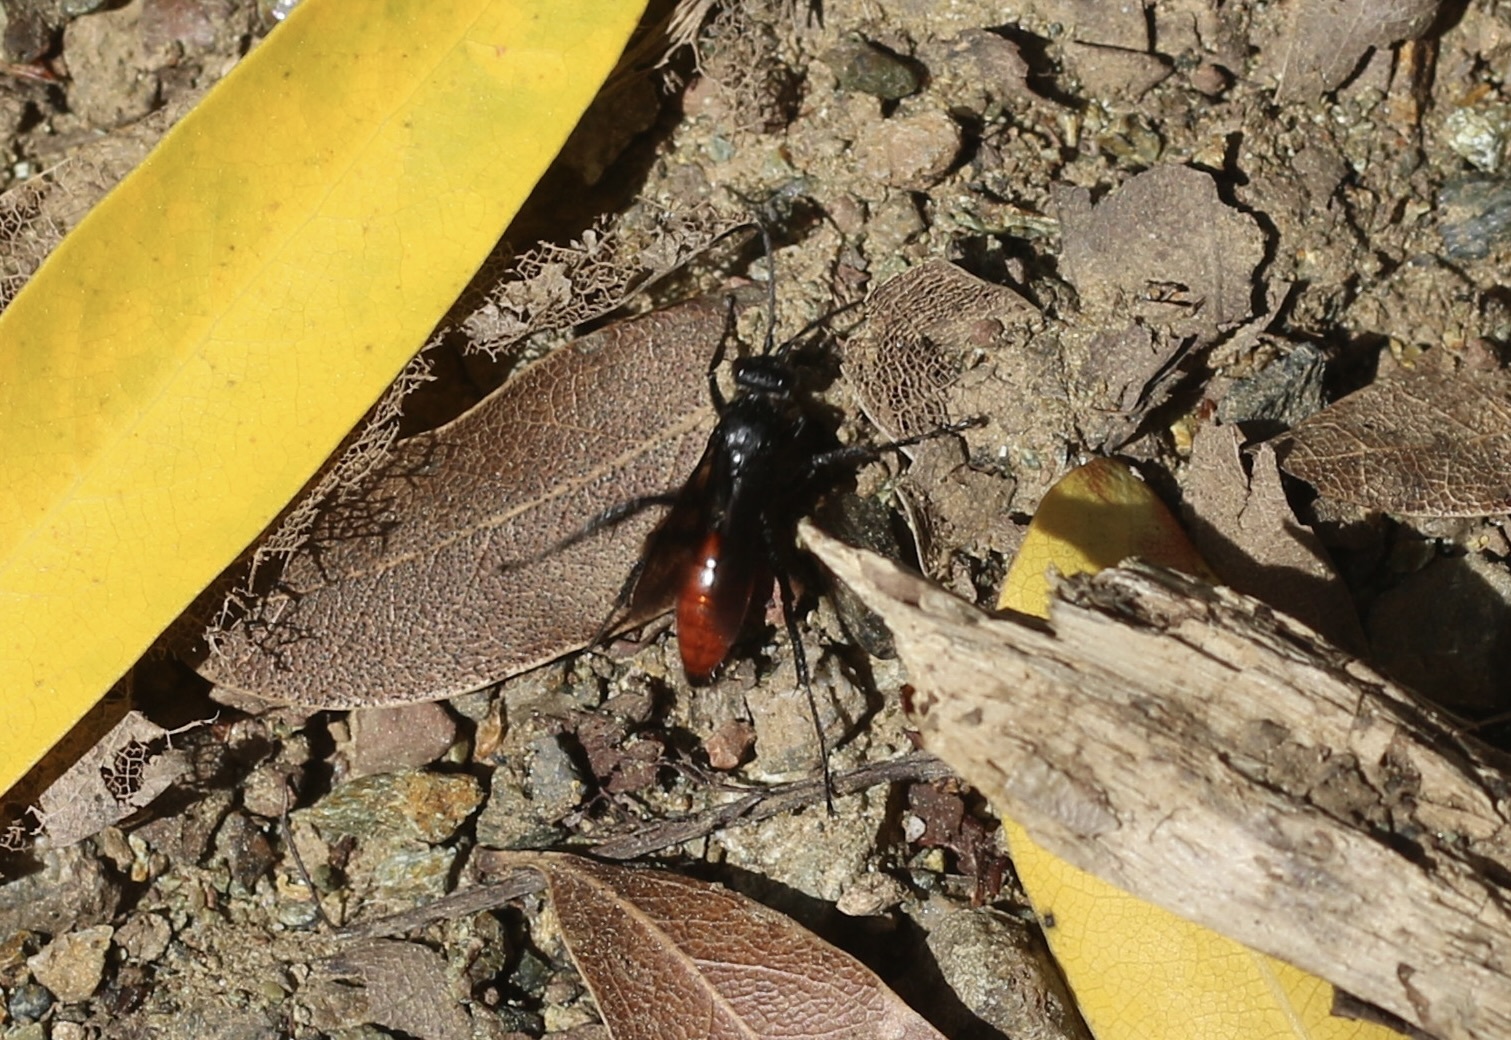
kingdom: Animalia
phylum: Arthropoda
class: Insecta
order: Hymenoptera
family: Pompilidae
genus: Priocnemis
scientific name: Priocnemis oregona
